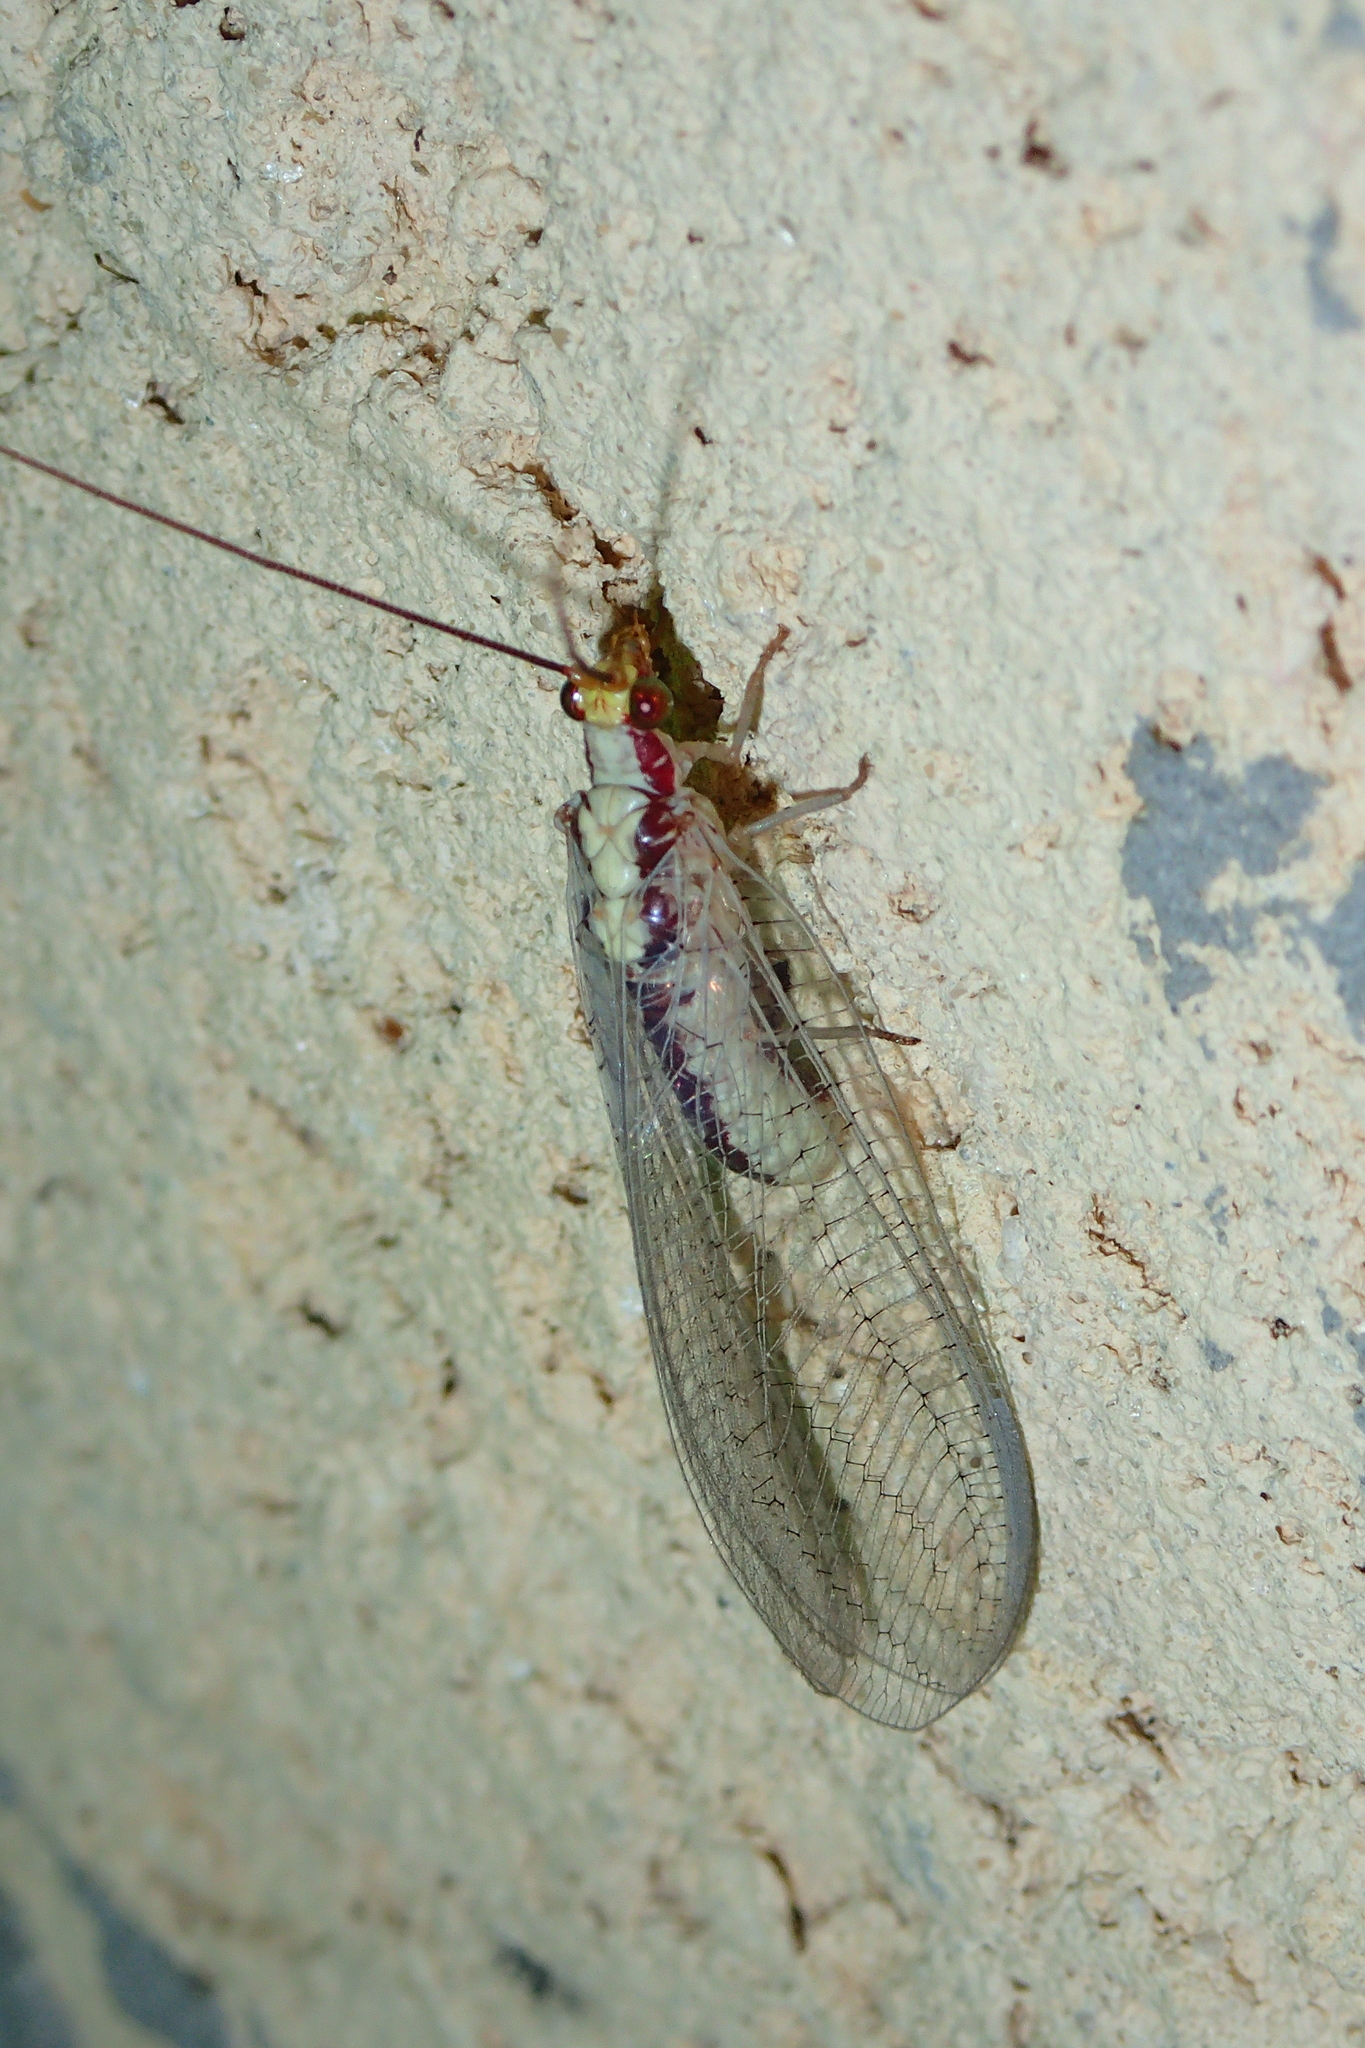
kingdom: Animalia
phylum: Arthropoda
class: Insecta
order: Neuroptera
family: Chrysopidae
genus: Italochrysa
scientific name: Italochrysa italica
